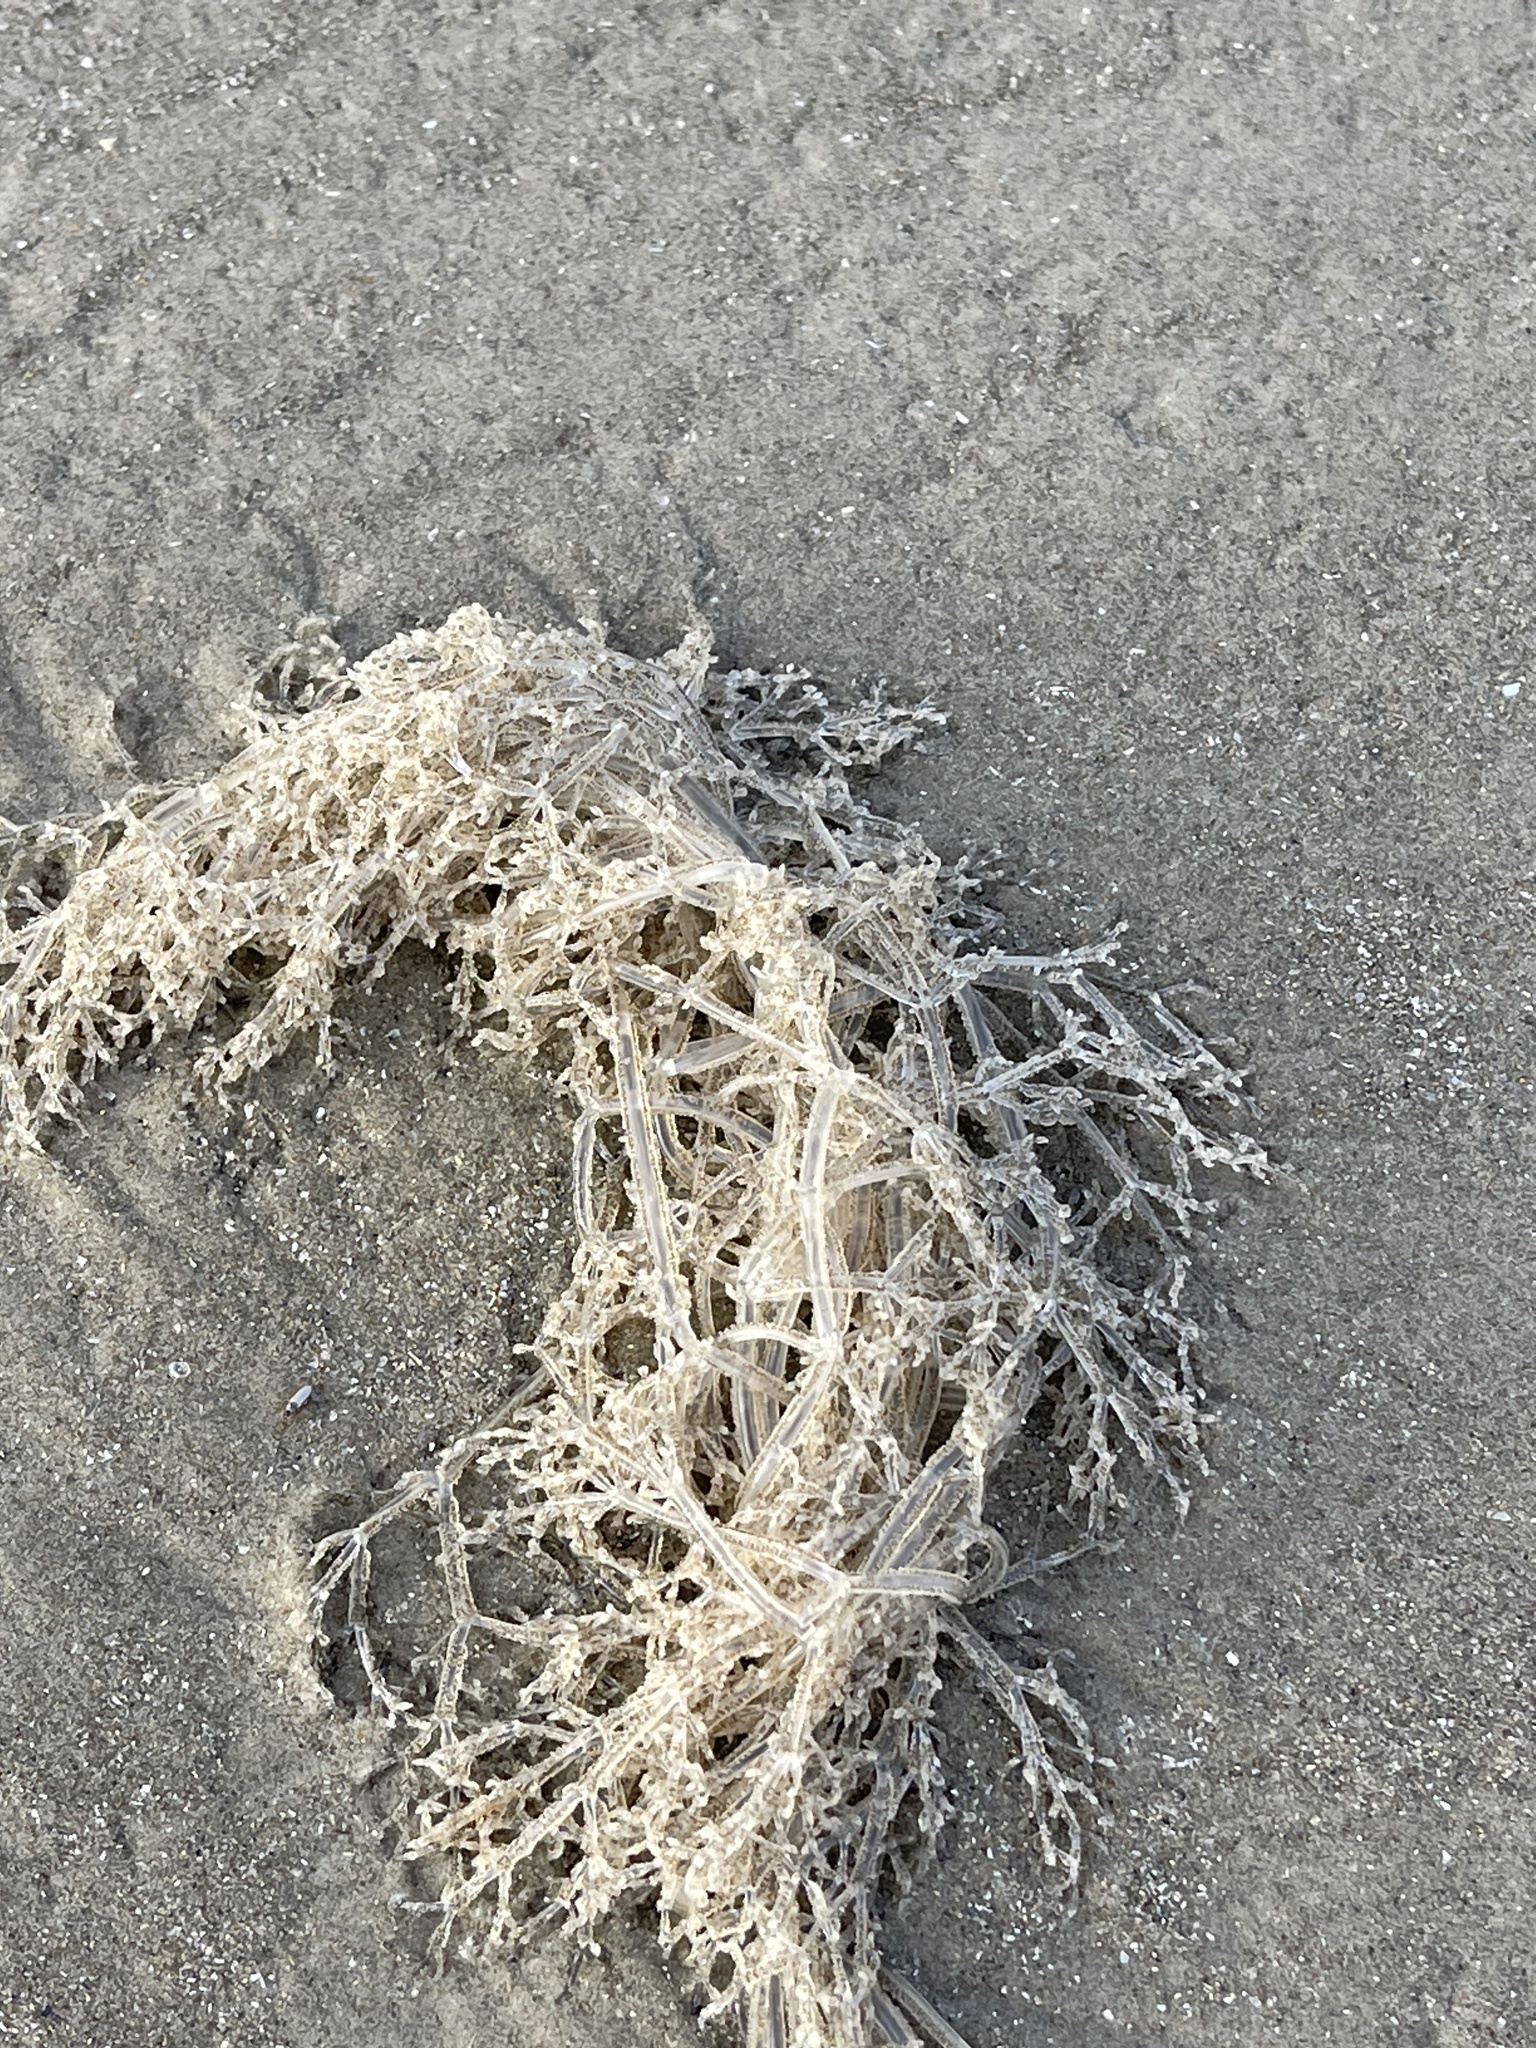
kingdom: Animalia
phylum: Bryozoa
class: Gymnolaemata
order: Ctenostomatida
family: Vesiculariidae
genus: Amathia
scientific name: Amathia verticillata
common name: Whorled zoobotryon
